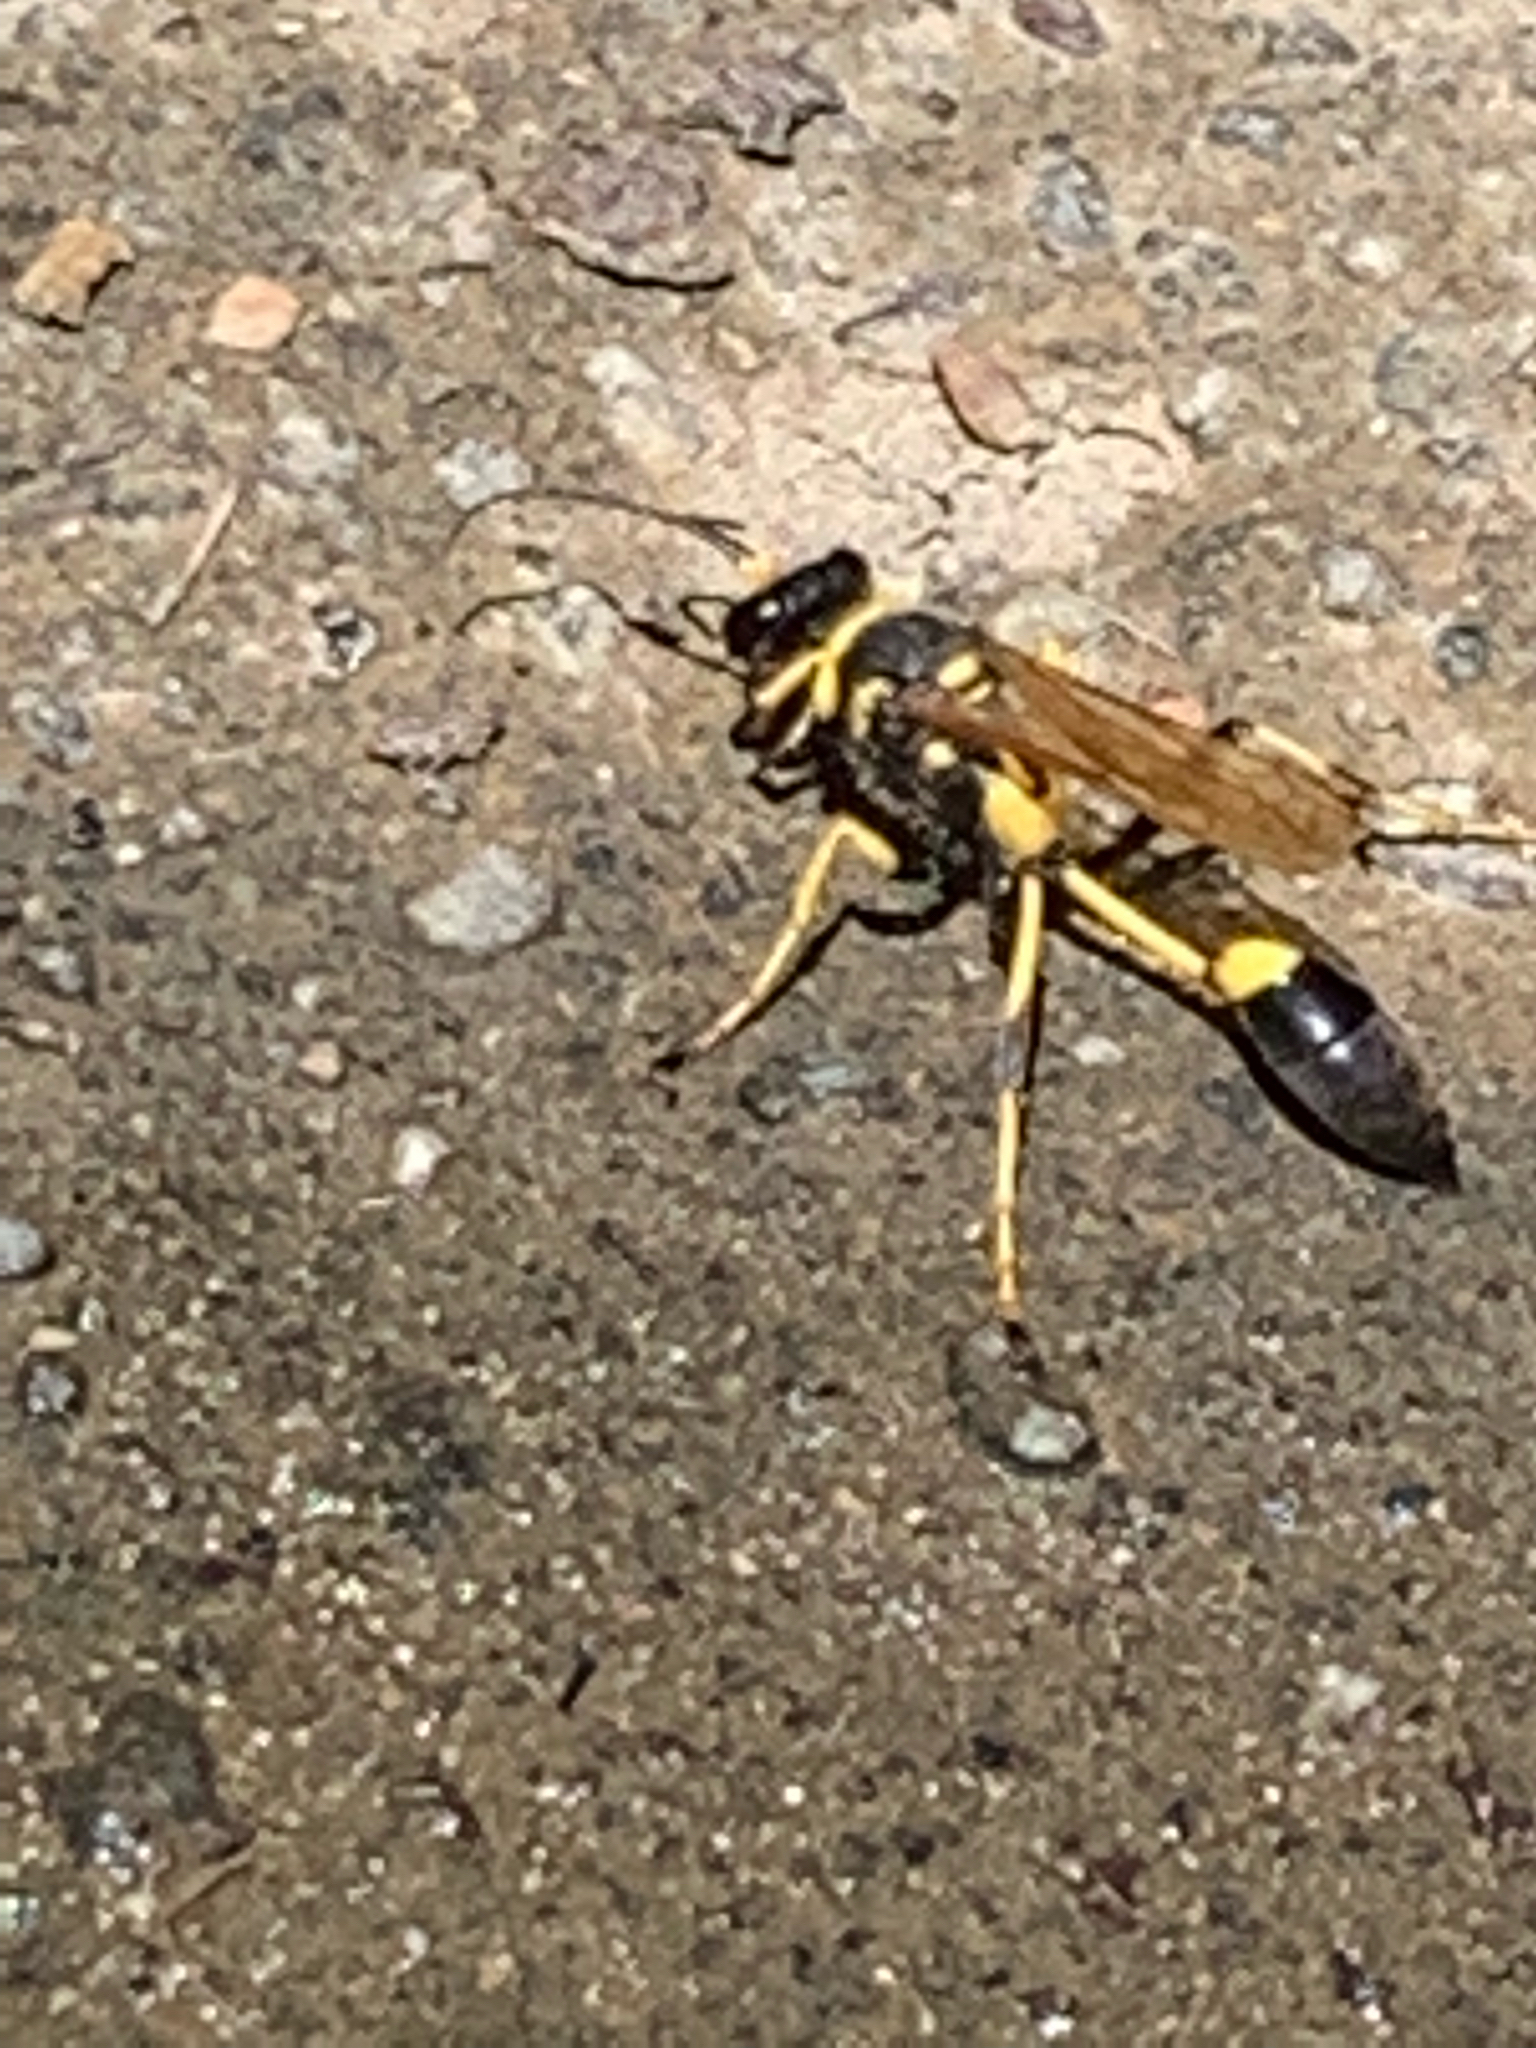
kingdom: Animalia
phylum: Arthropoda
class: Insecta
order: Hymenoptera
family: Sphecidae
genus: Sceliphron
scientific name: Sceliphron caementarium
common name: Mud dauber
